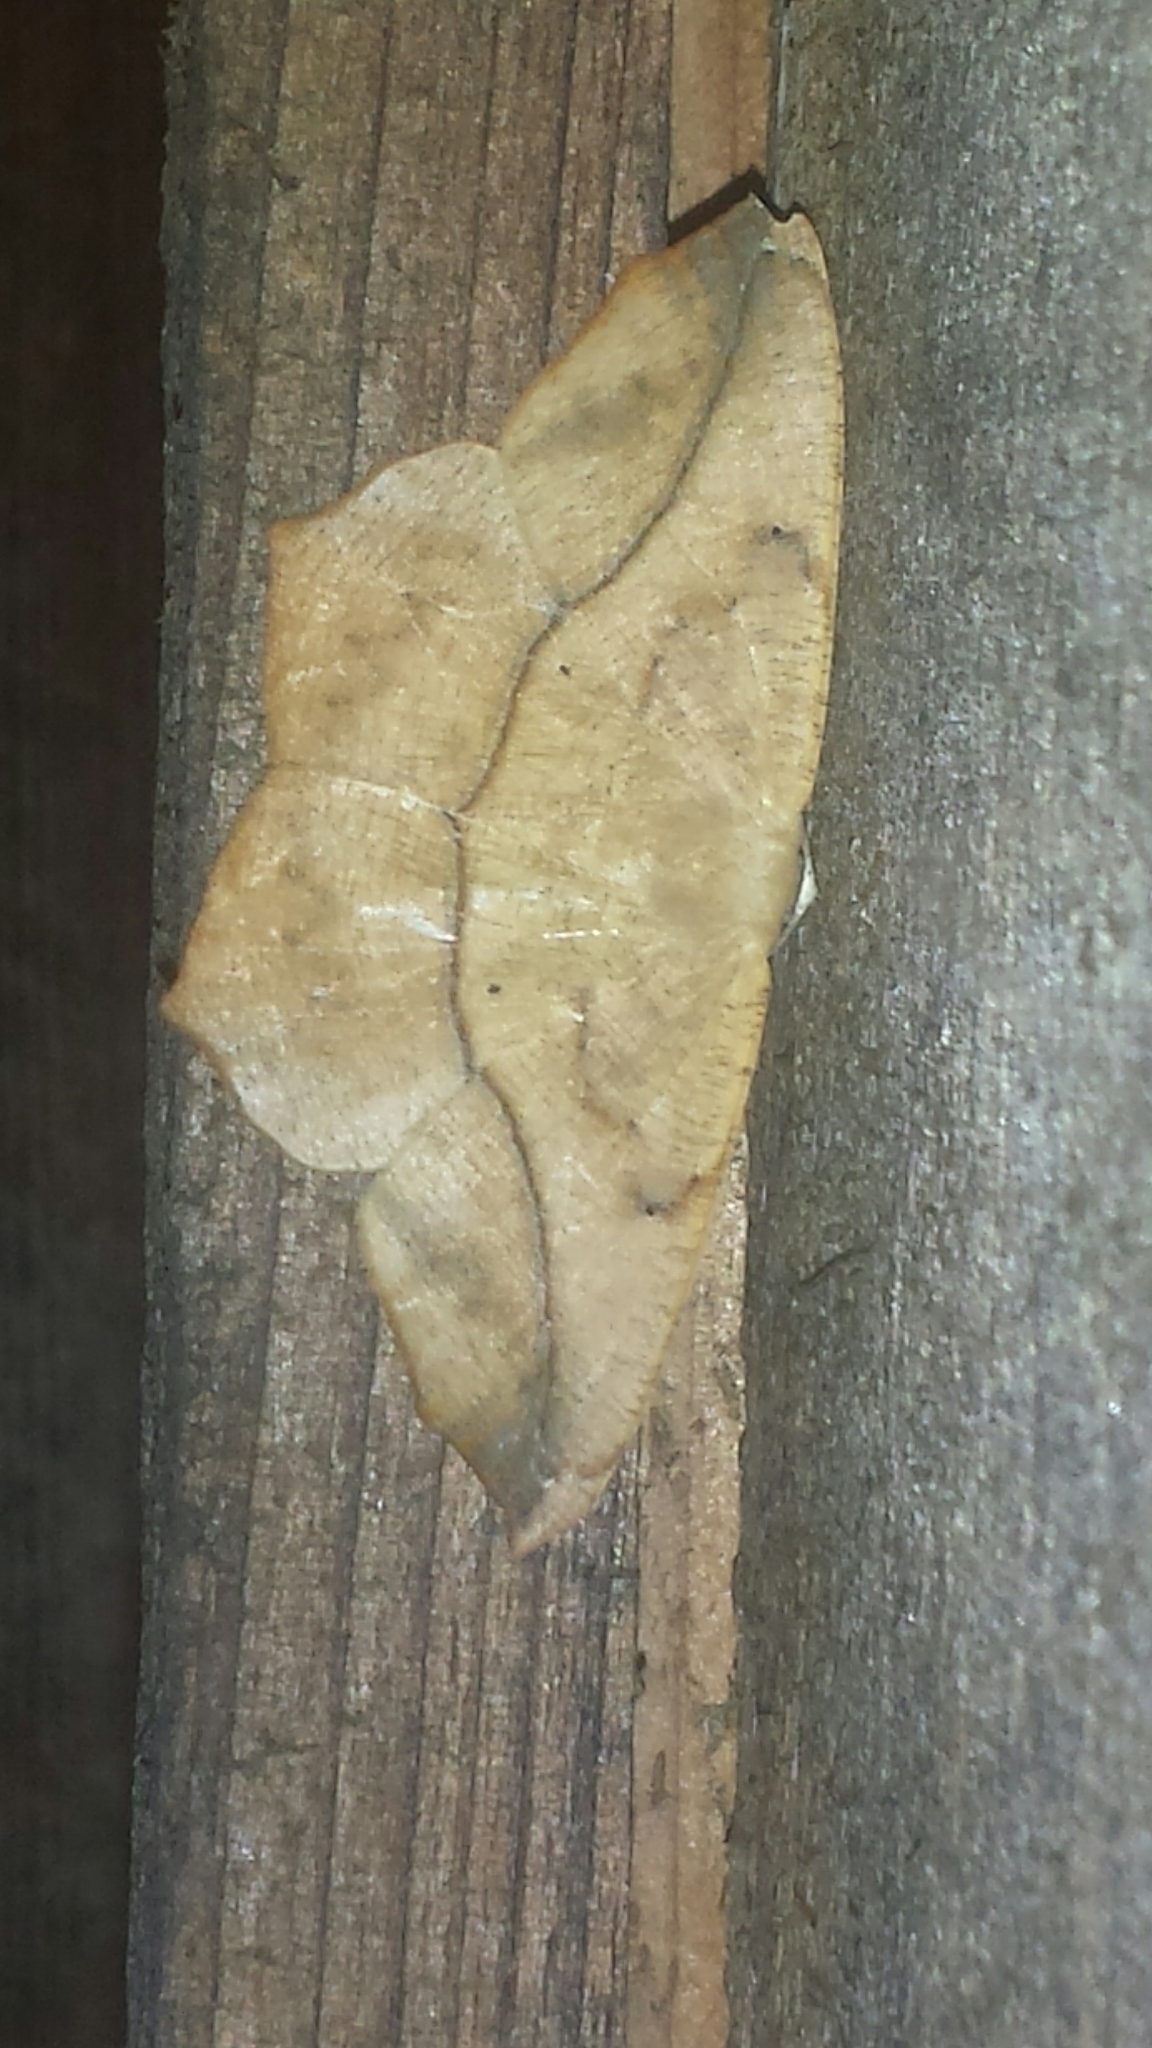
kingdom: Animalia
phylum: Arthropoda
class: Insecta
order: Lepidoptera
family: Geometridae
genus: Prochoerodes
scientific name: Prochoerodes lineola
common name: Large maple spanworm
